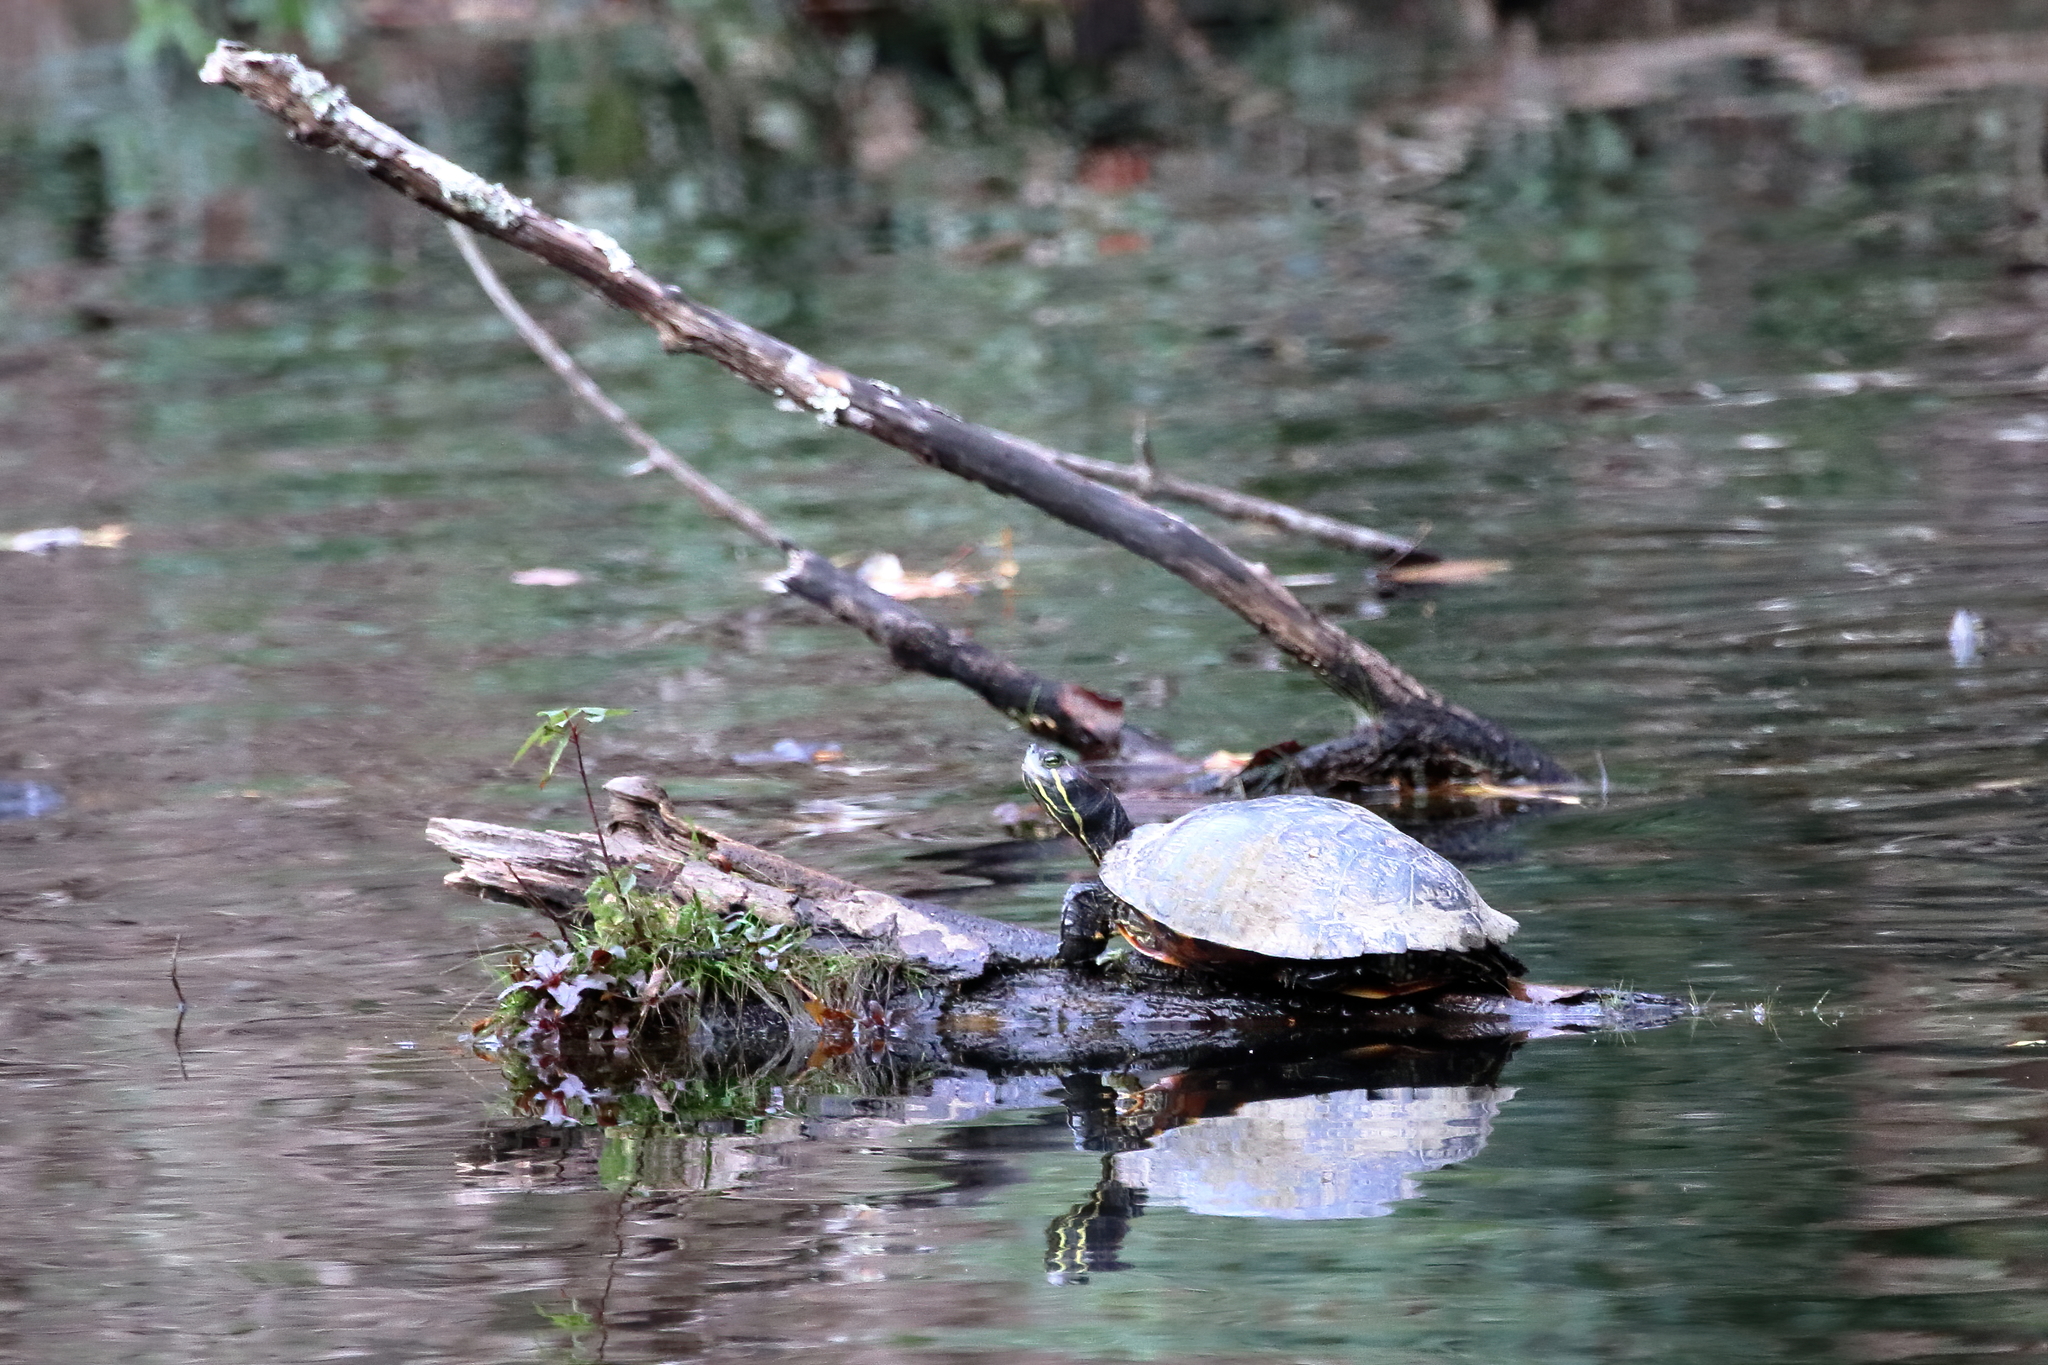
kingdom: Animalia
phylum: Chordata
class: Testudines
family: Emydidae
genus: Trachemys
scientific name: Trachemys scripta
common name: Slider
